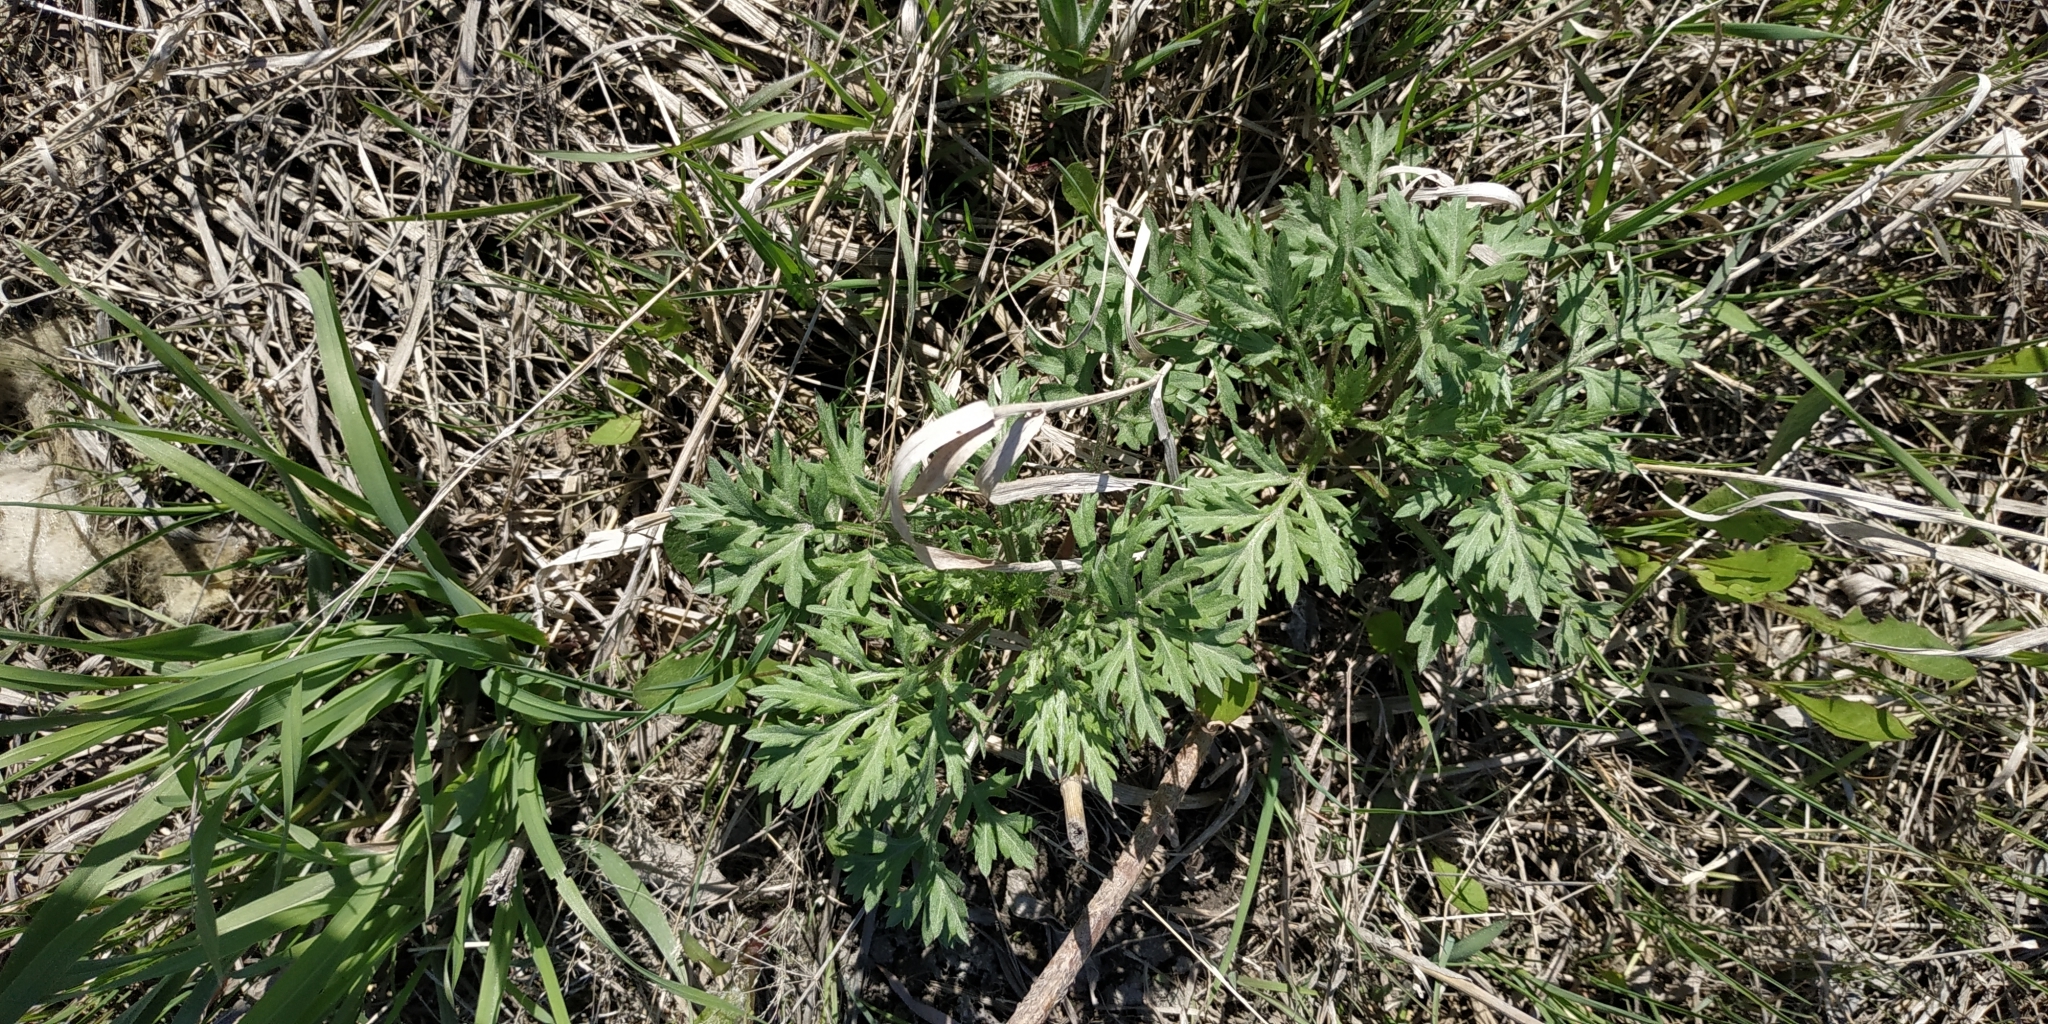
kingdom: Plantae
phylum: Tracheophyta
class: Magnoliopsida
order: Asterales
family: Asteraceae
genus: Artemisia
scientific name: Artemisia vulgaris
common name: Mugwort
